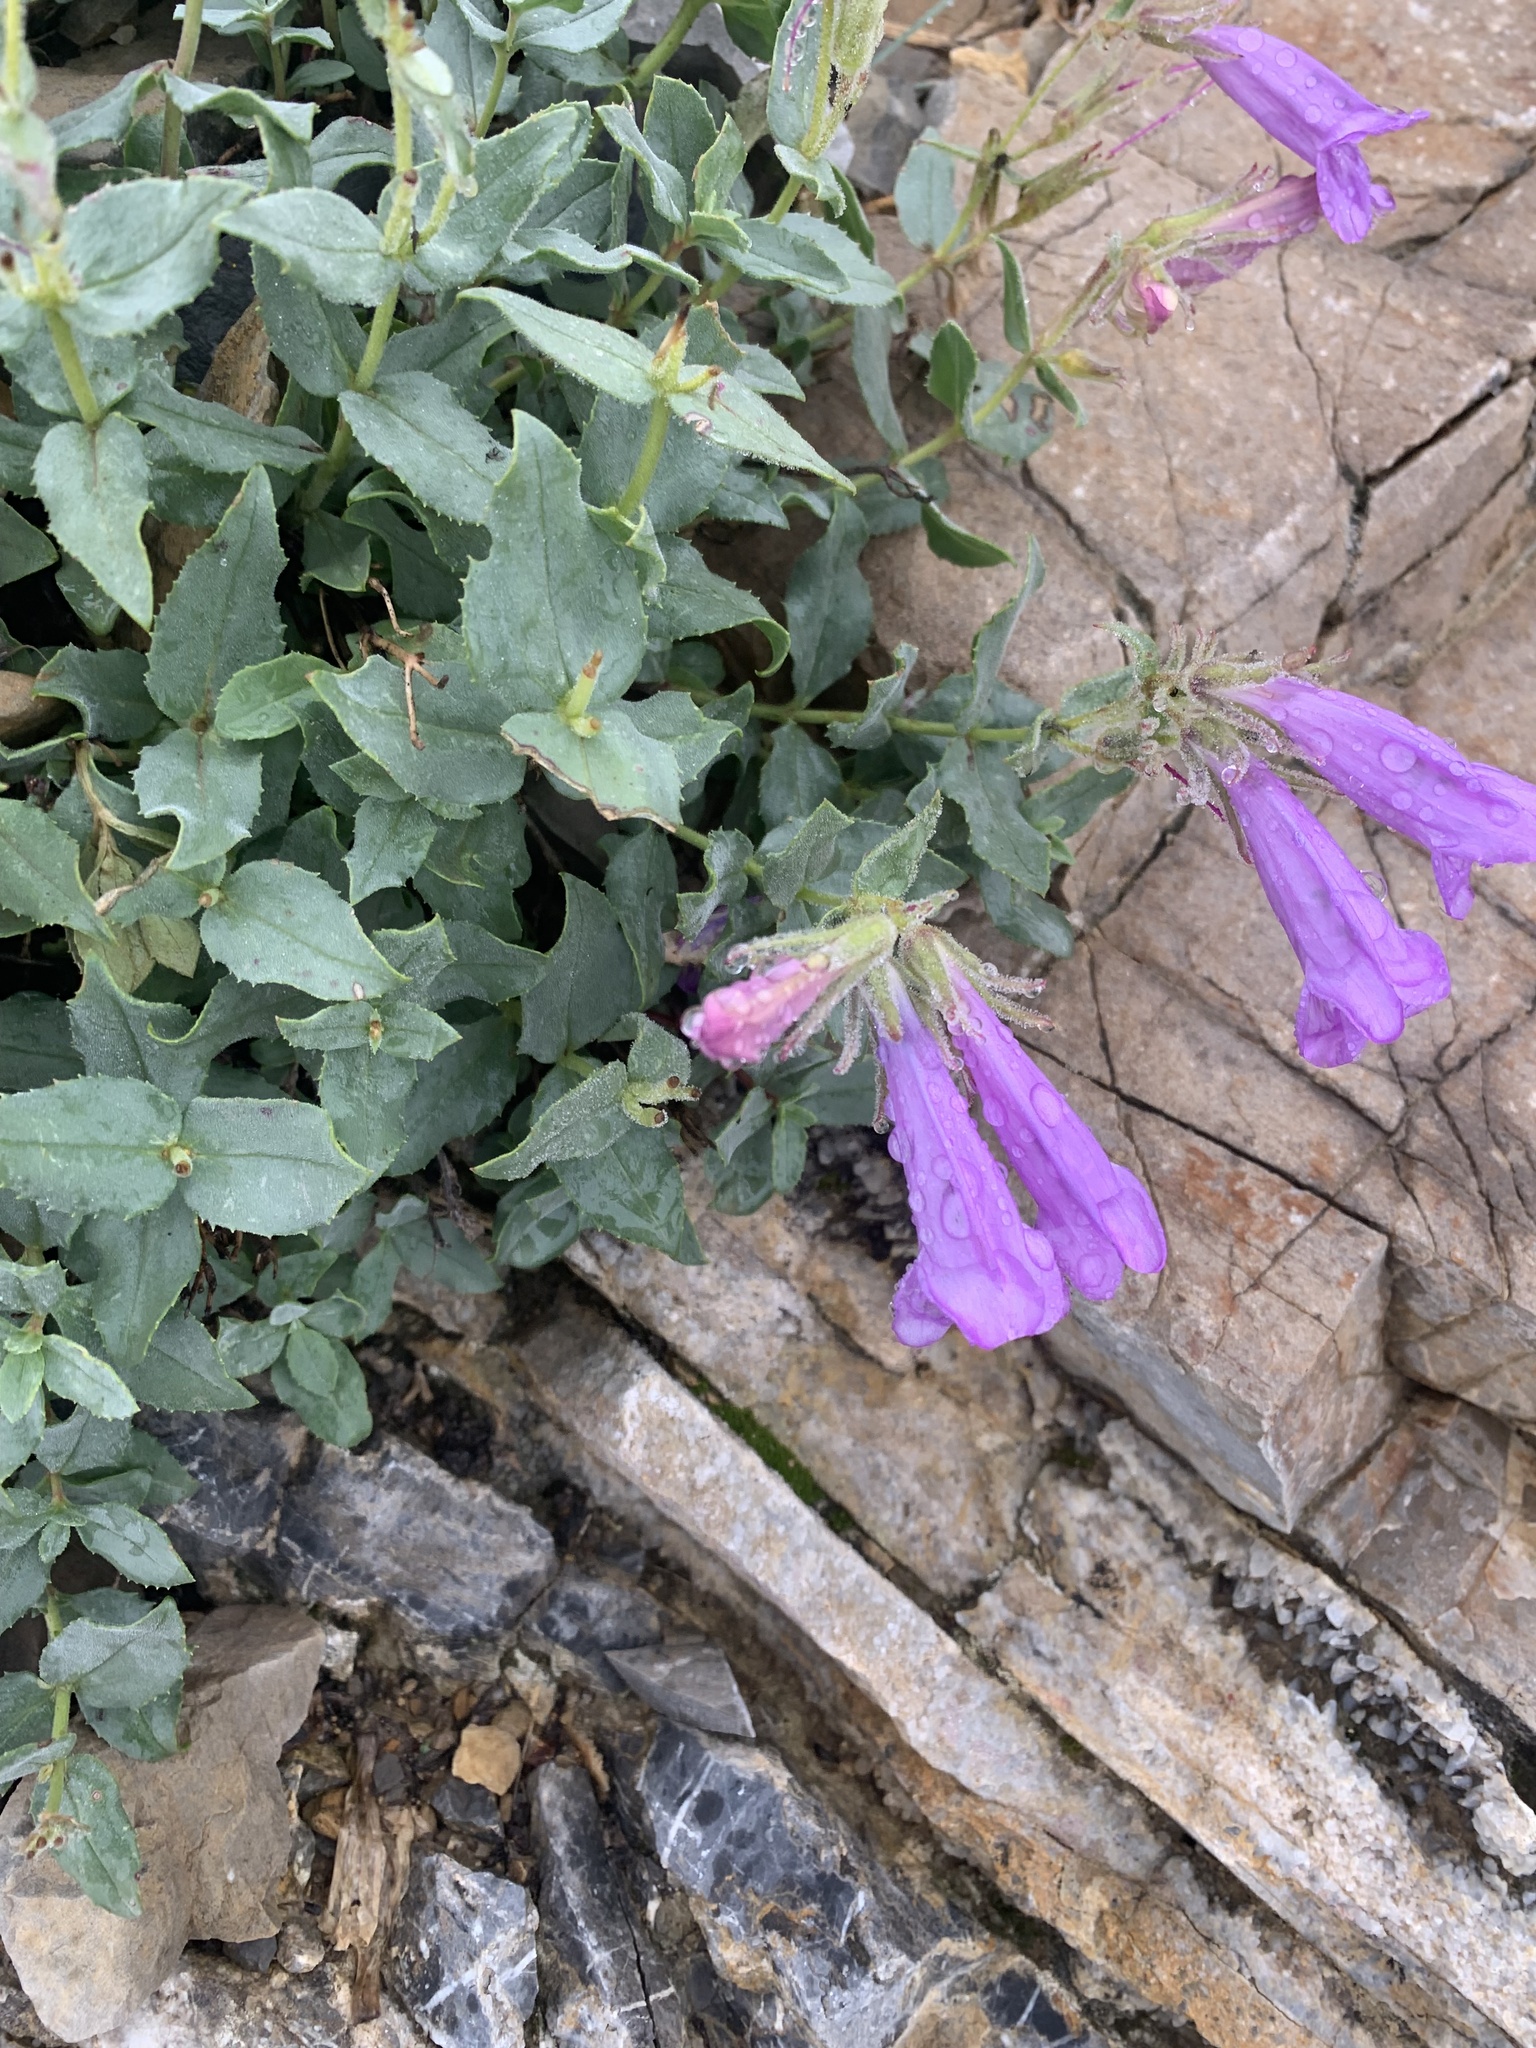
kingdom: Plantae
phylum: Tracheophyta
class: Magnoliopsida
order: Lamiales
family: Plantaginaceae
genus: Penstemon
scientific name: Penstemon montanus
